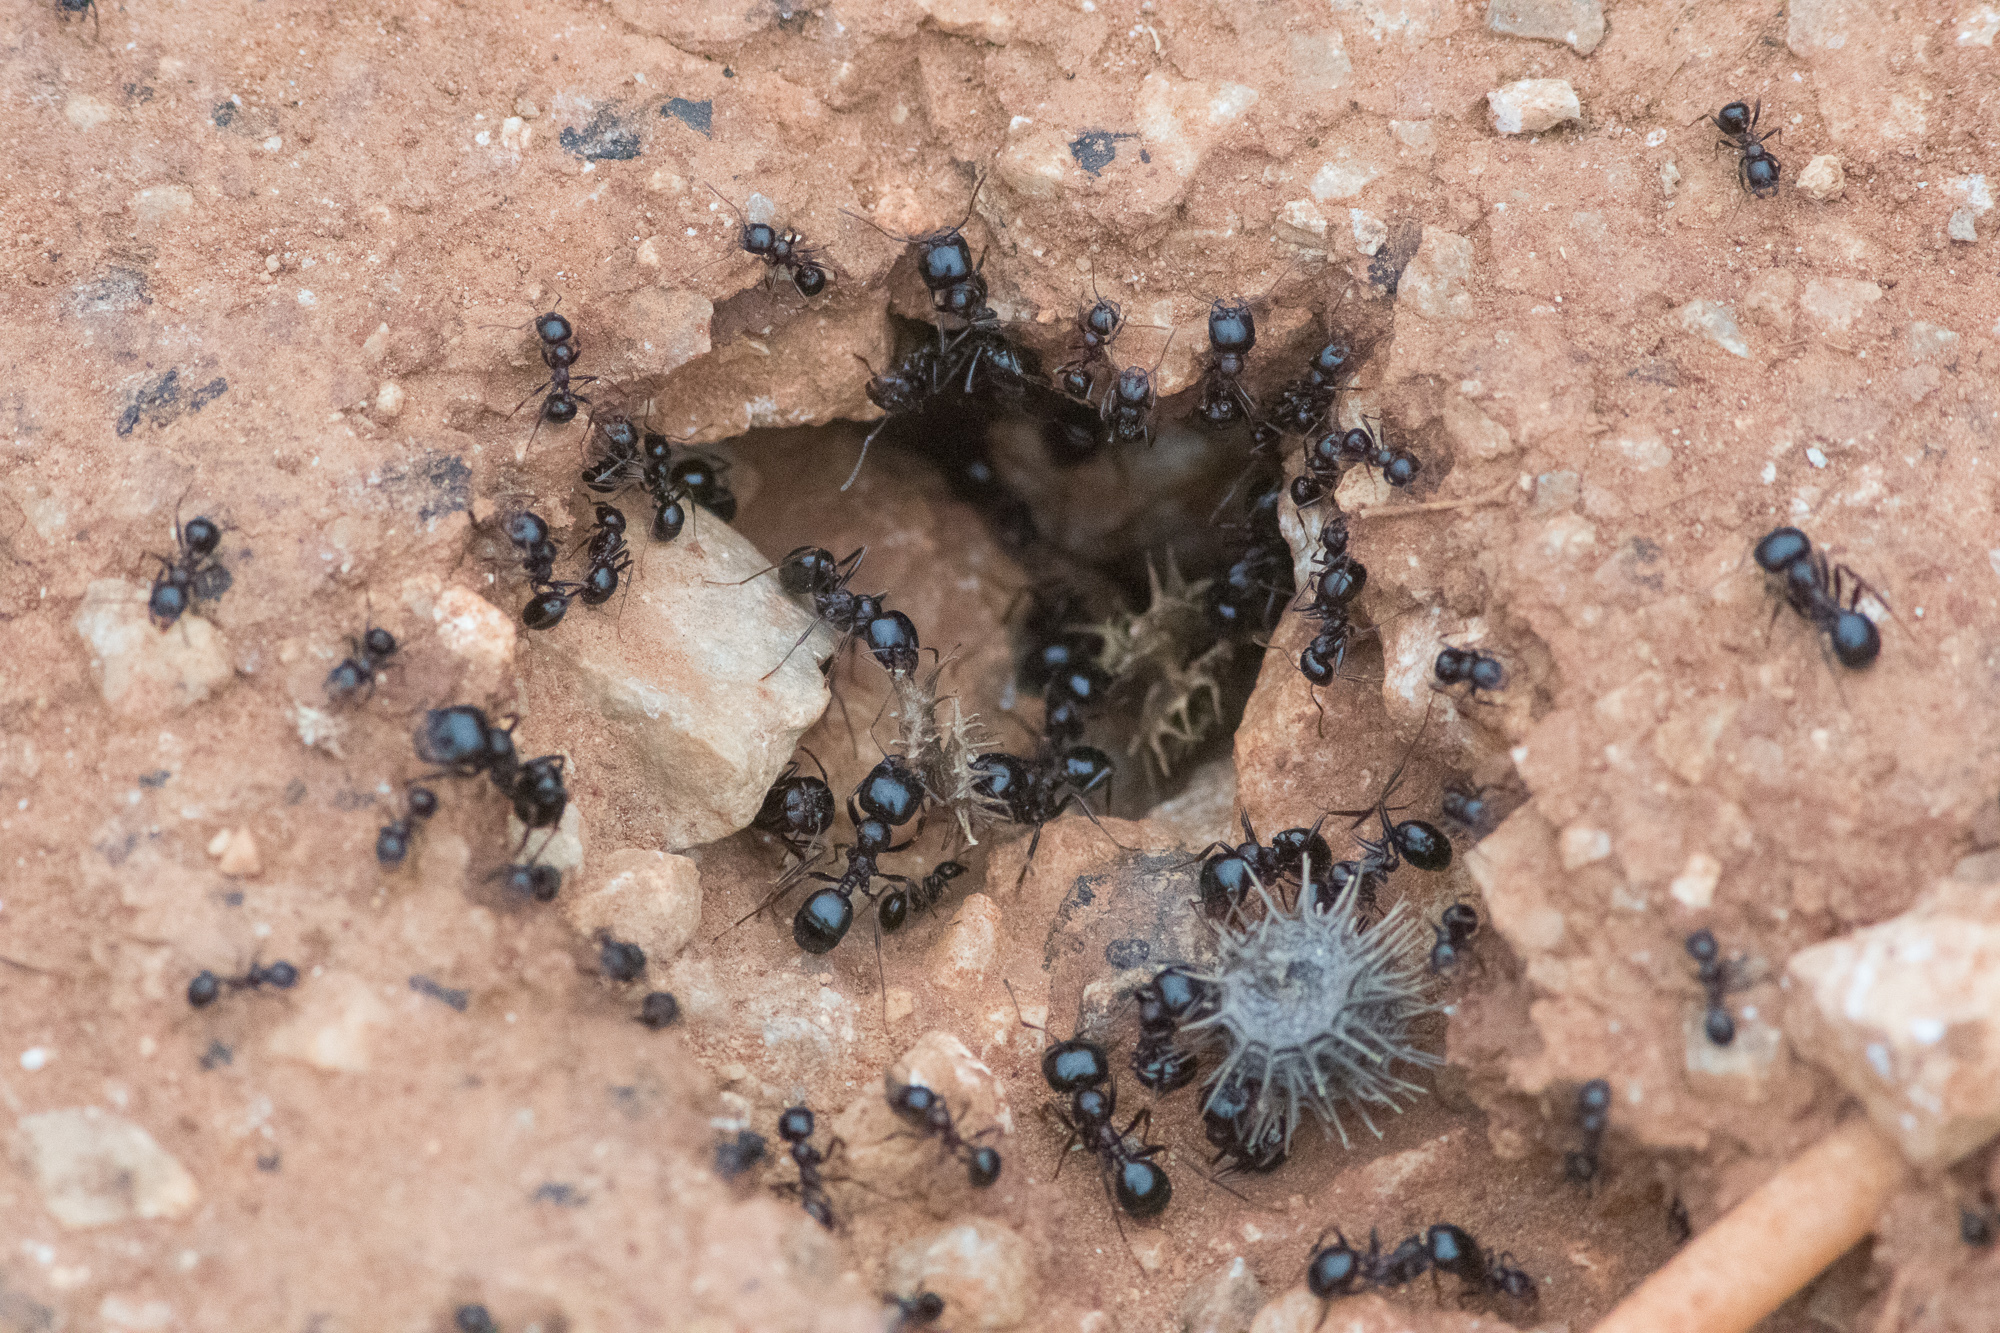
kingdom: Animalia
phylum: Arthropoda
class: Insecta
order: Hymenoptera
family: Formicidae
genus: Messor
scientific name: Messor wasmanni
